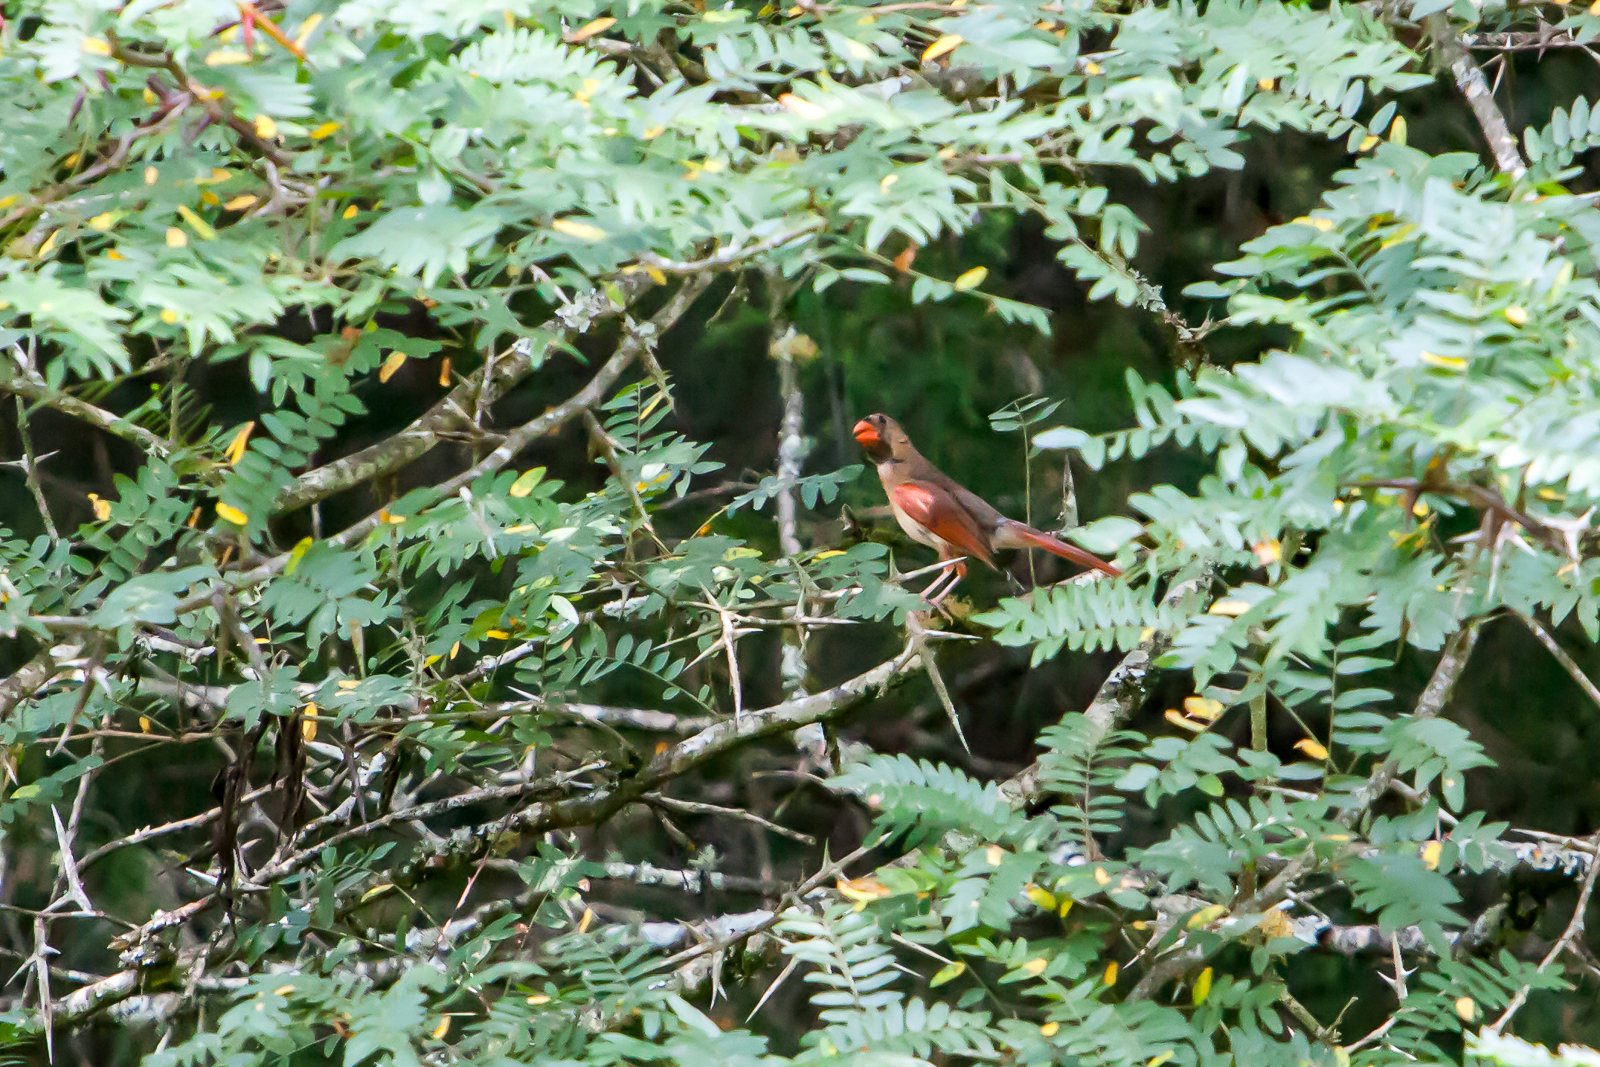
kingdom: Animalia
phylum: Chordata
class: Aves
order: Passeriformes
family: Cardinalidae
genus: Cardinalis
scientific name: Cardinalis cardinalis
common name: Northern cardinal
